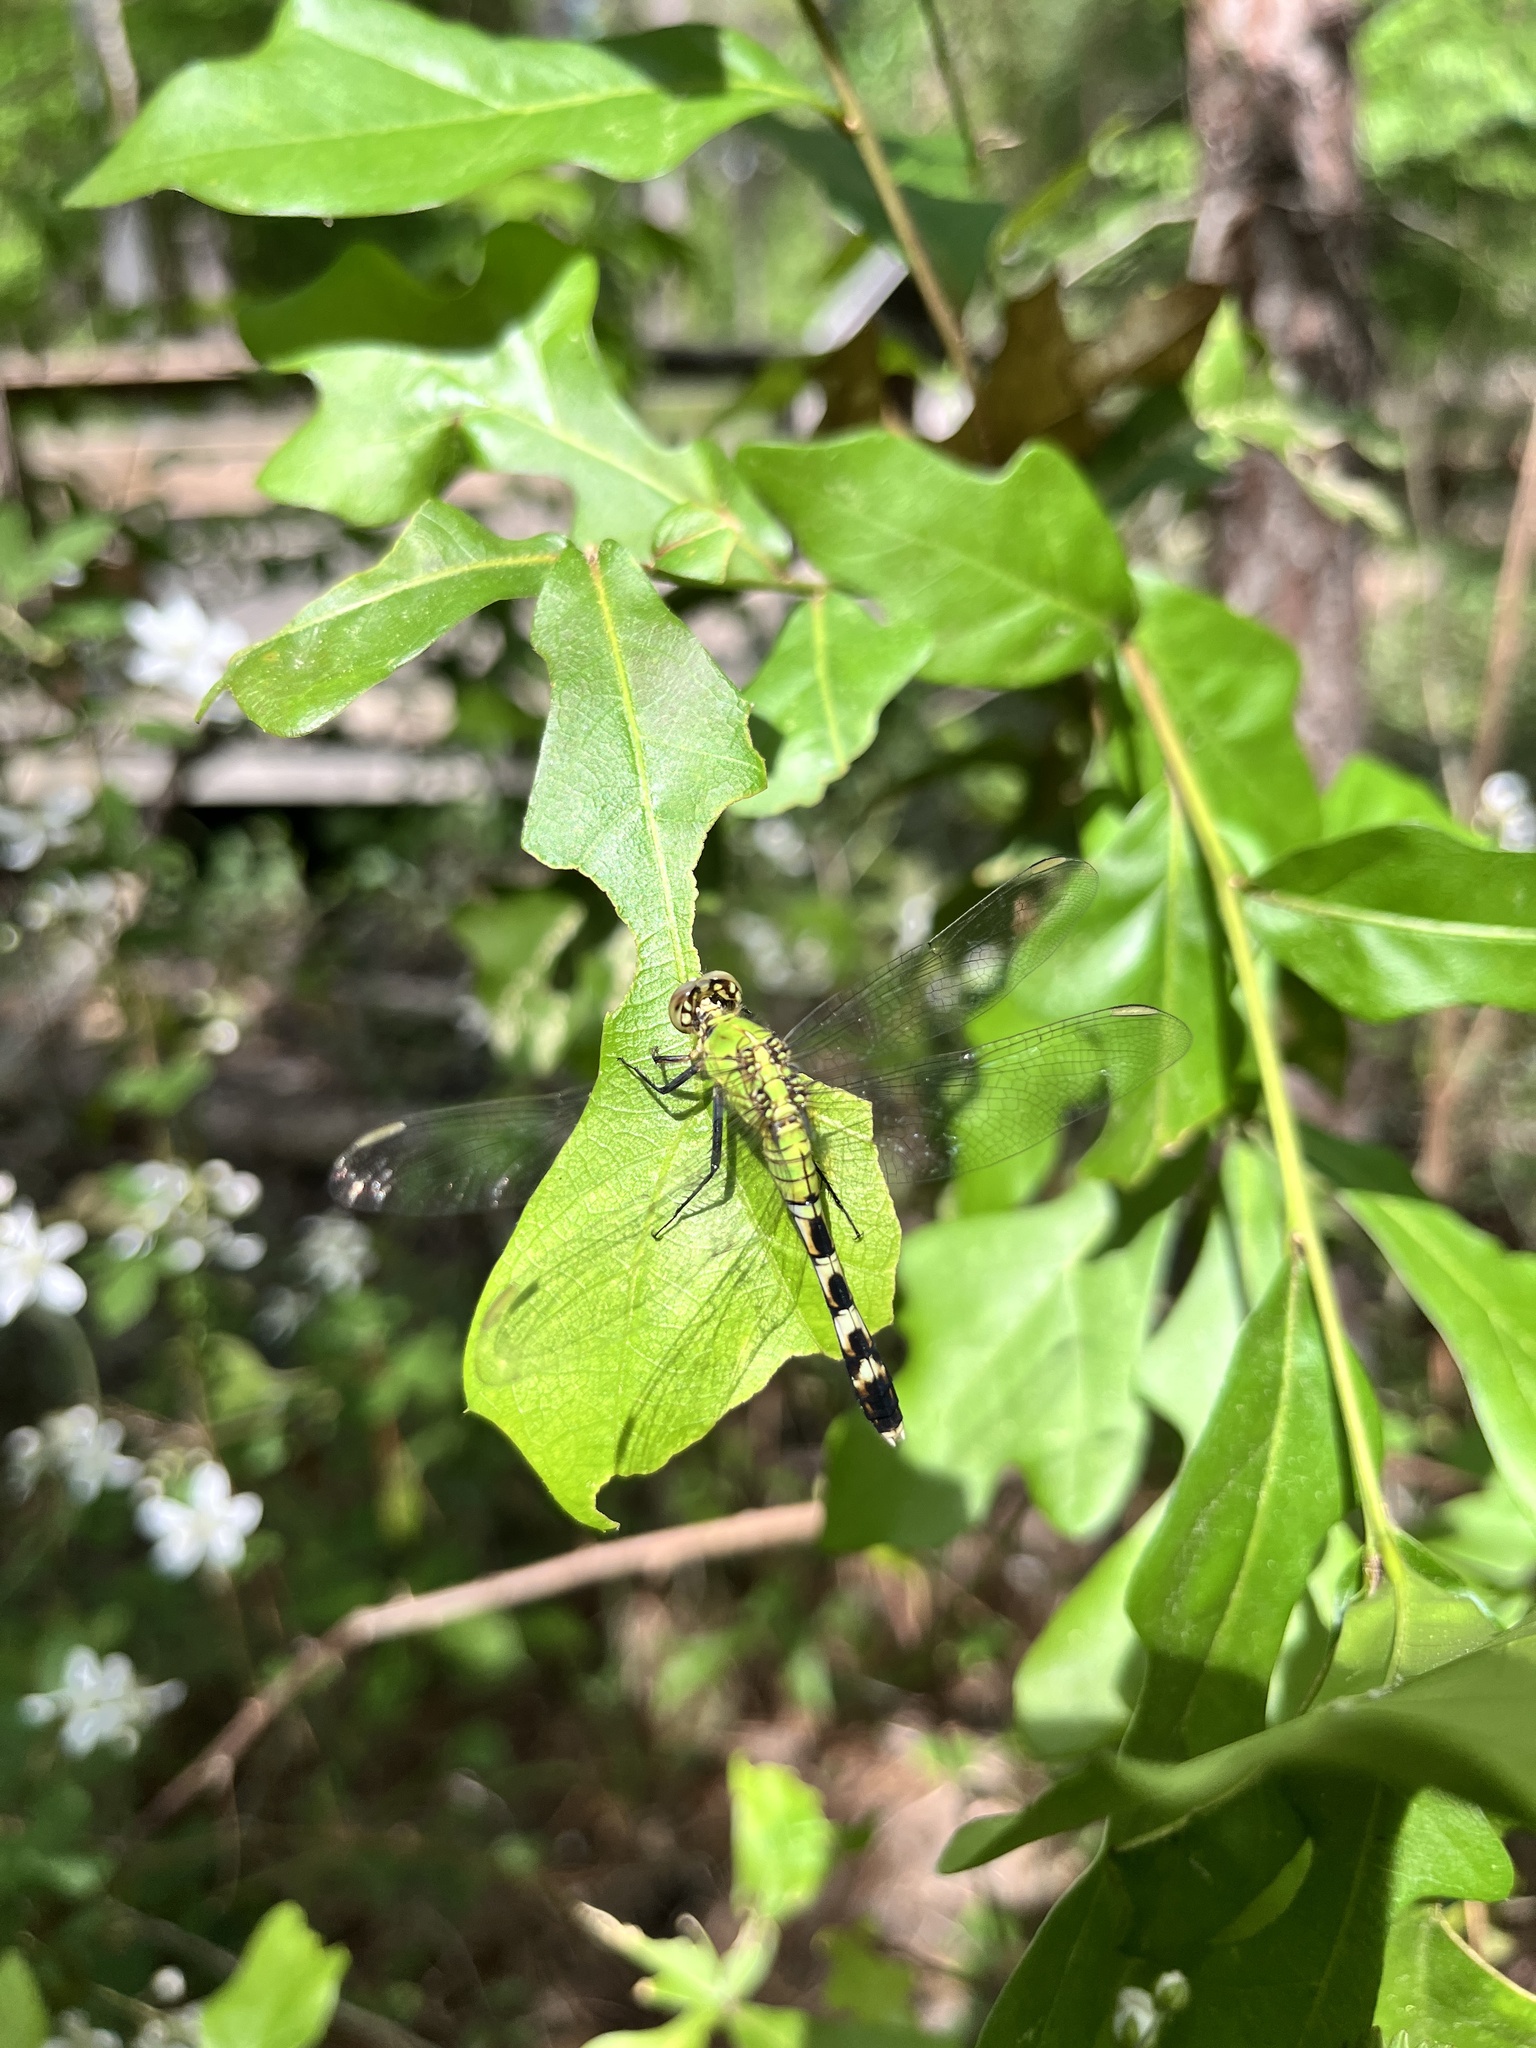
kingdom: Animalia
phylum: Arthropoda
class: Insecta
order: Odonata
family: Libellulidae
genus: Erythemis
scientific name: Erythemis simplicicollis
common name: Eastern pondhawk
